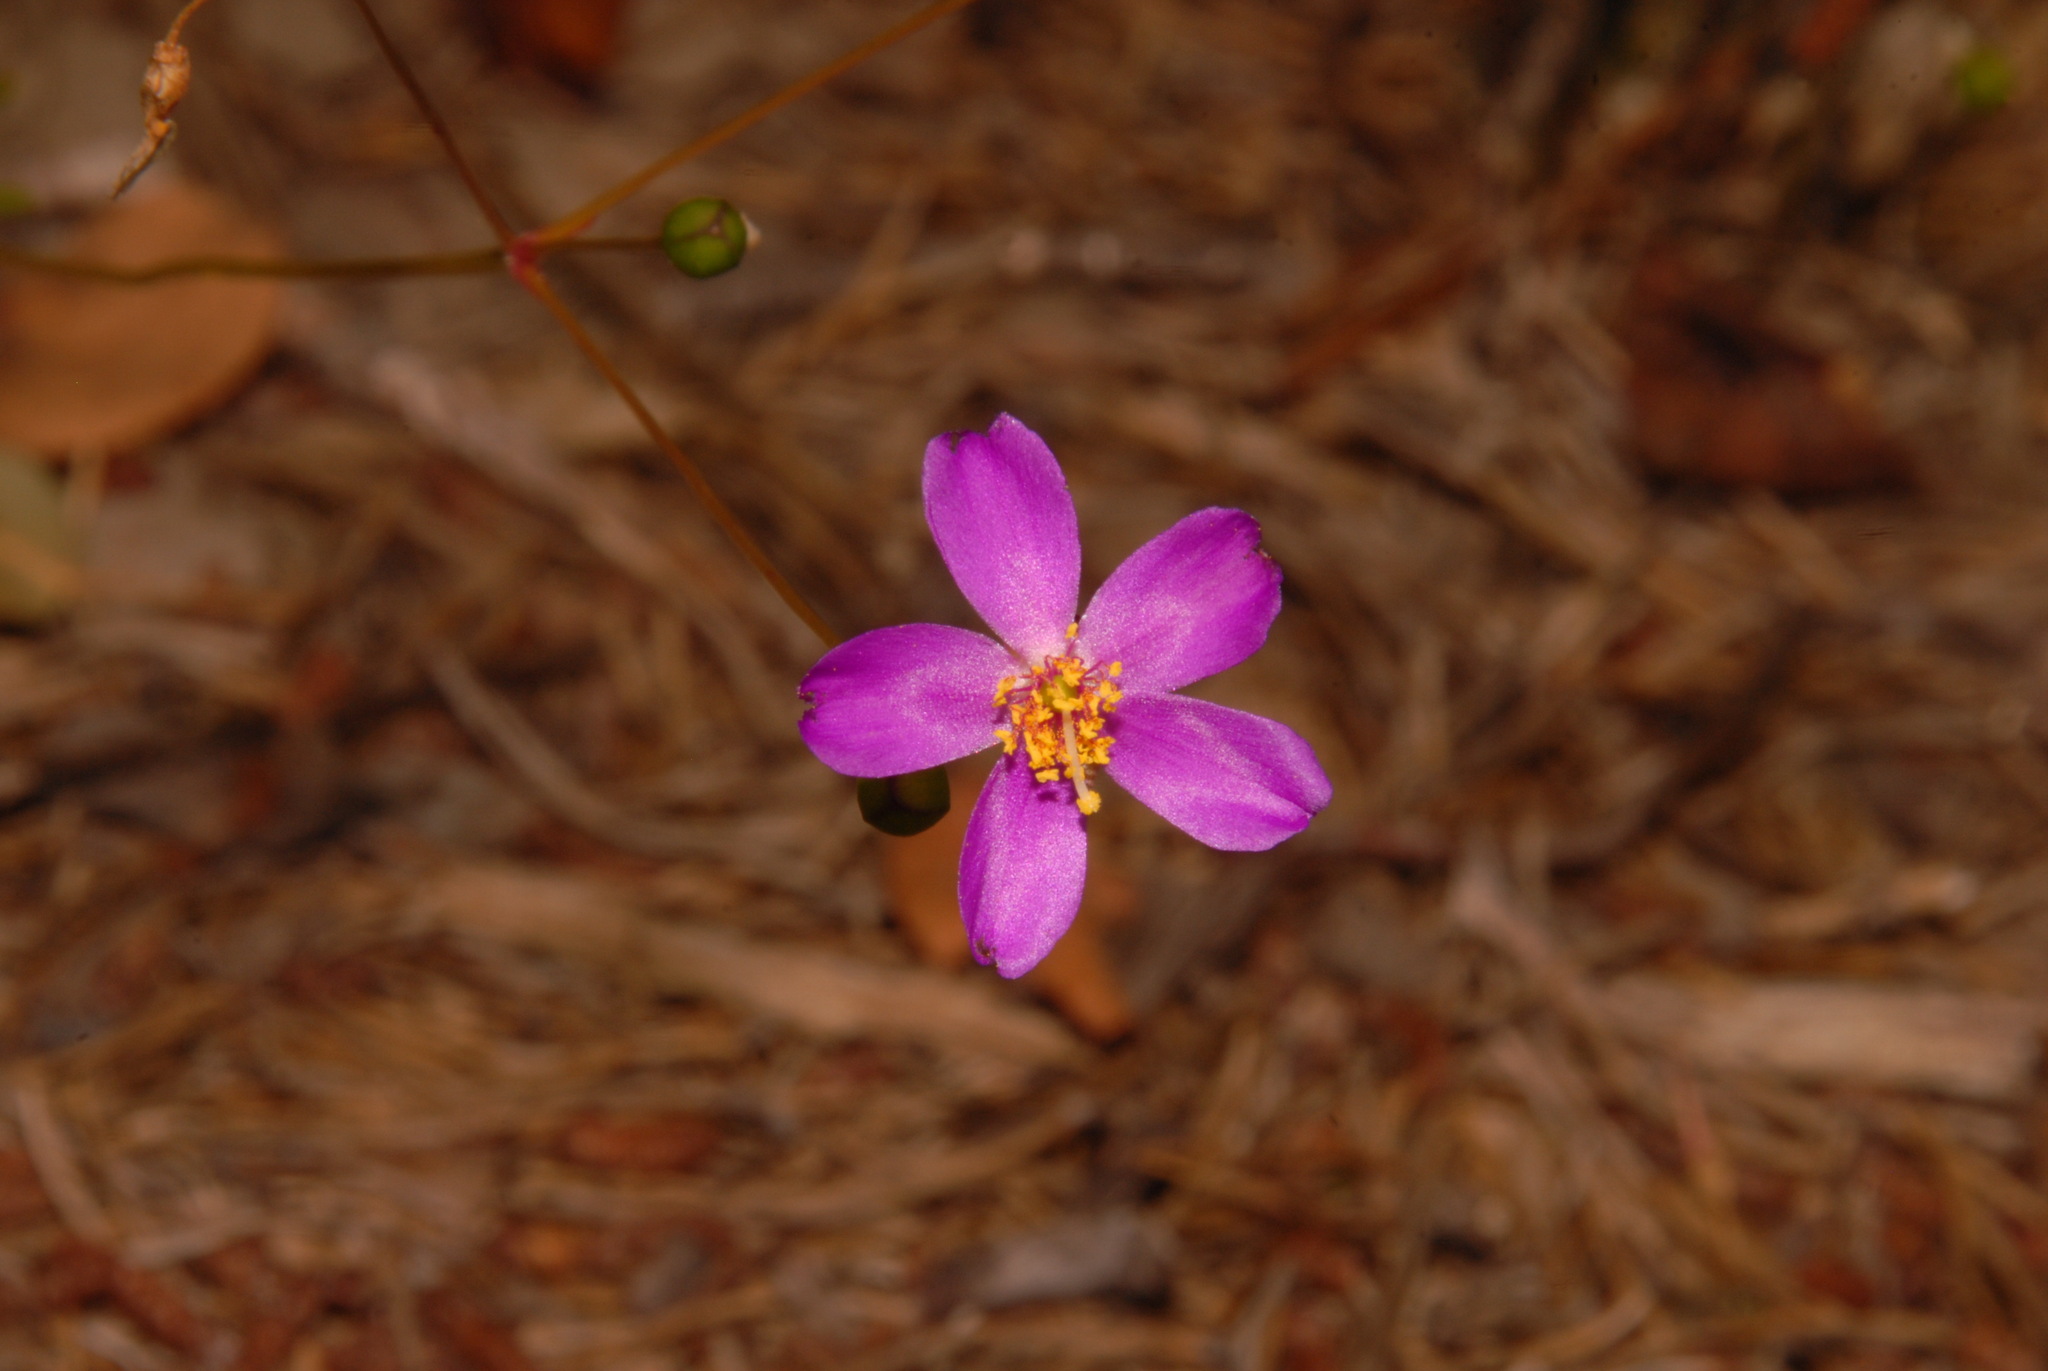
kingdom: Plantae
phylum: Tracheophyta
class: Magnoliopsida
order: Caryophyllales
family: Montiaceae
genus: Phemeranthus
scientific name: Phemeranthus mengesii
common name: Menges' fameflower
